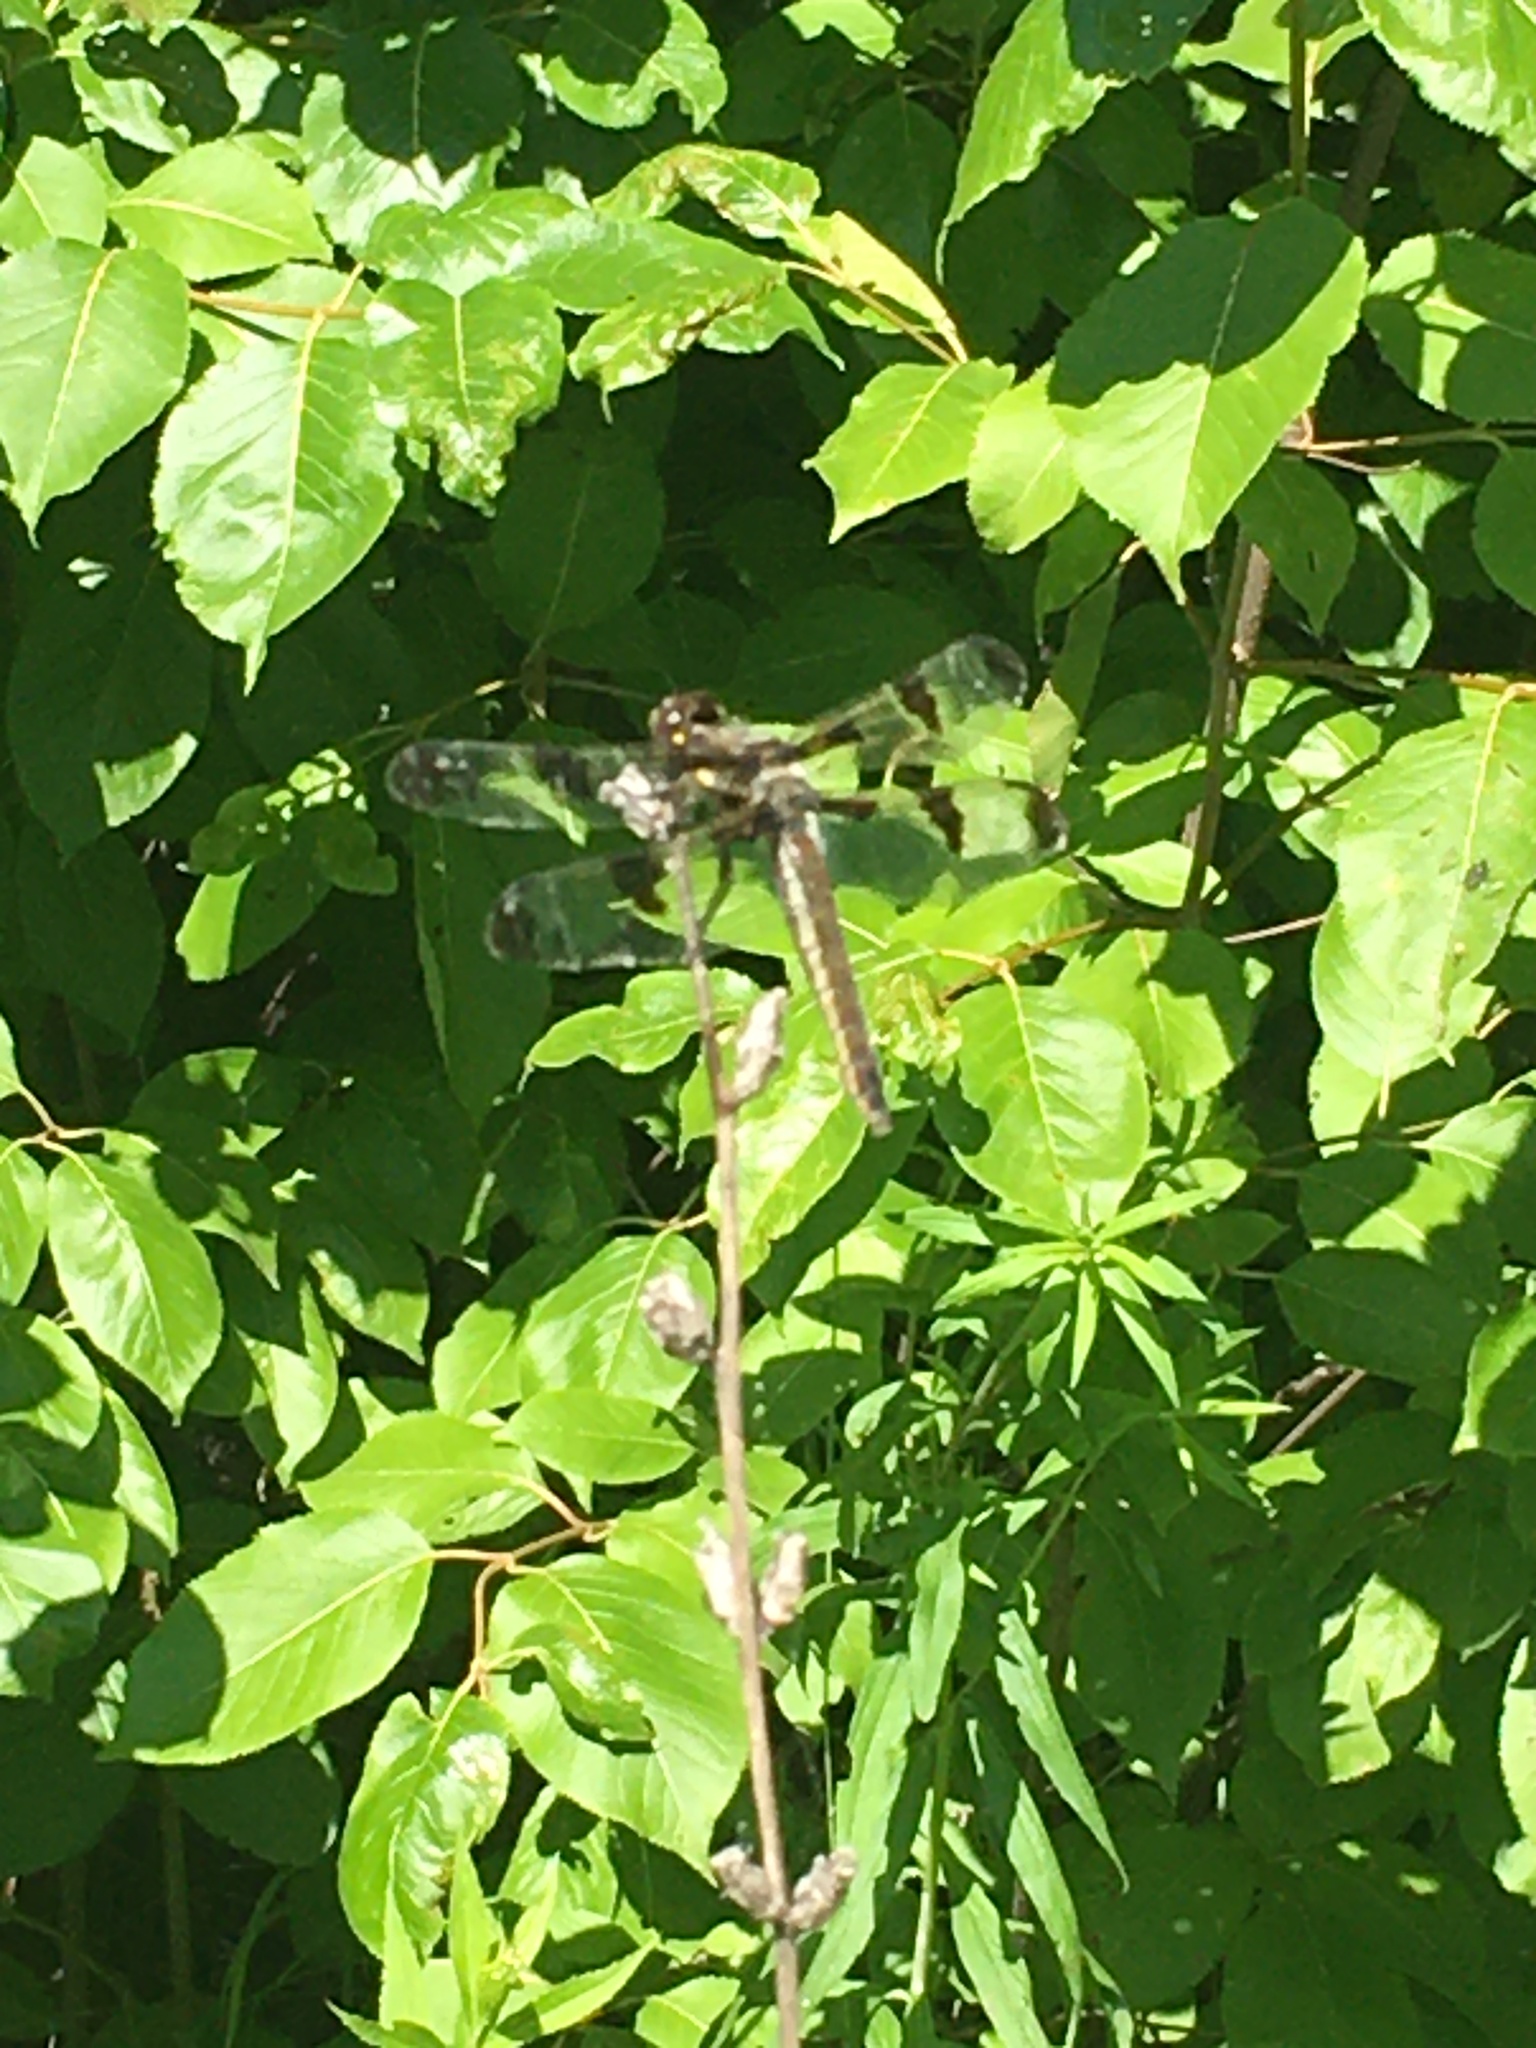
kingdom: Animalia
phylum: Arthropoda
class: Insecta
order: Odonata
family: Libellulidae
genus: Libellula
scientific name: Libellula pulchella
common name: Twelve-spotted skimmer
